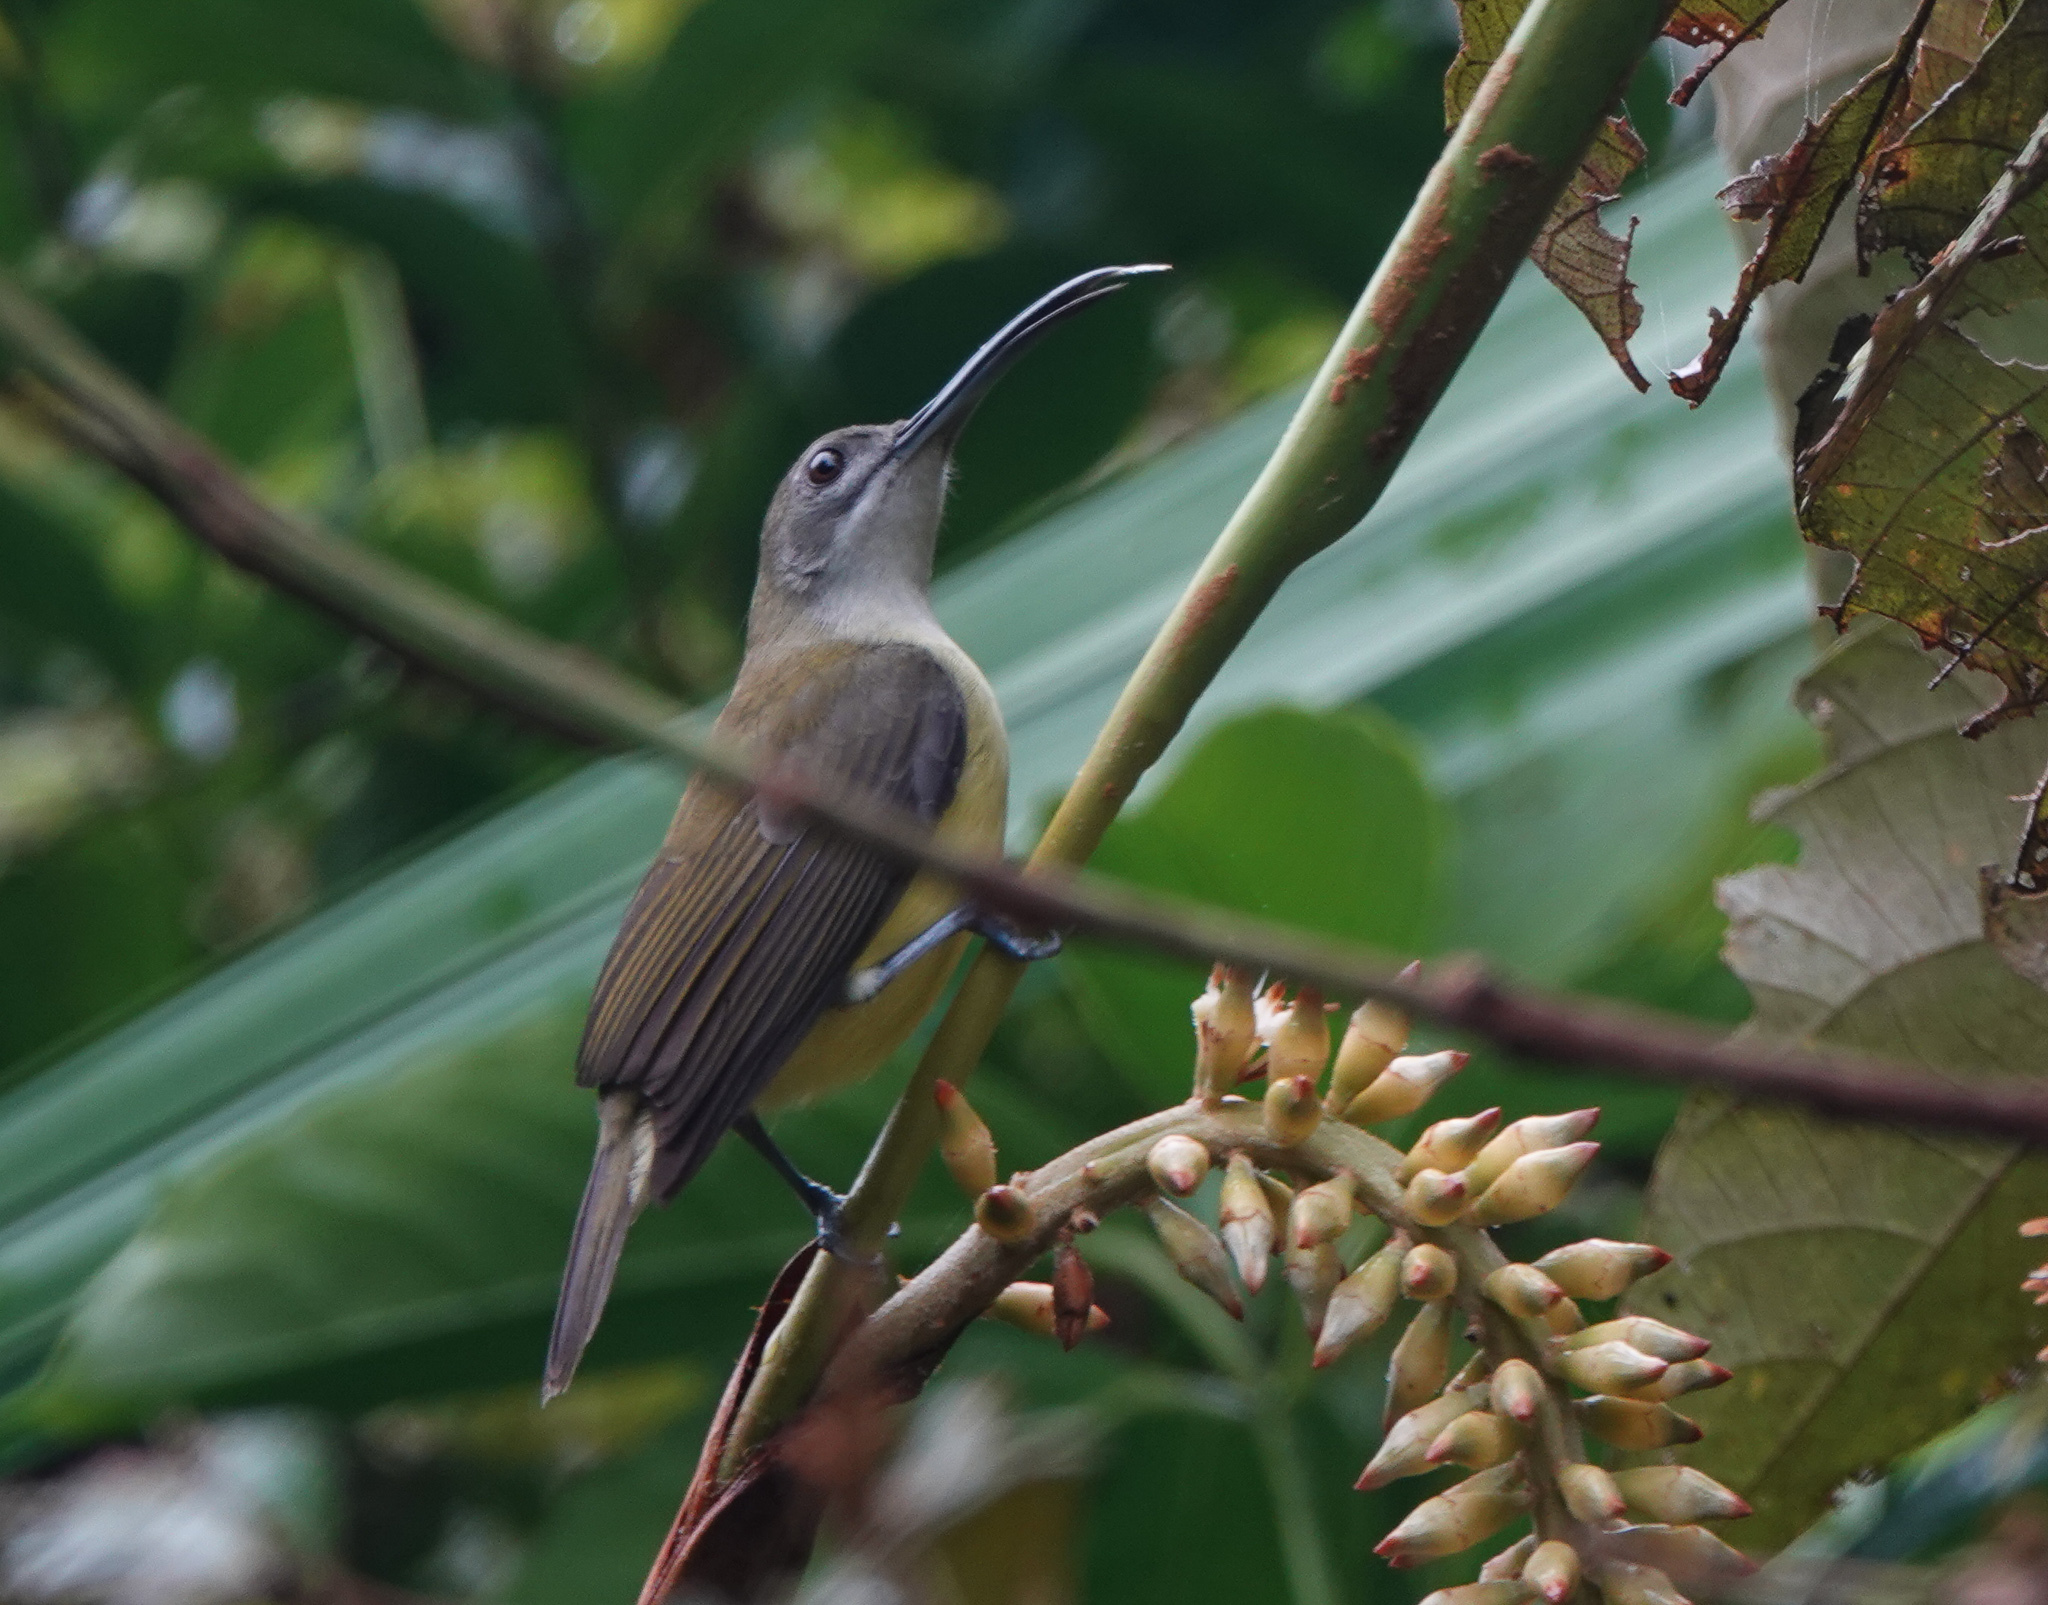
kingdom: Animalia
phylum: Chordata
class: Aves
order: Passeriformes
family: Nectariniidae
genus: Arachnothera
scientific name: Arachnothera longirostra
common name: Little spiderhunter
